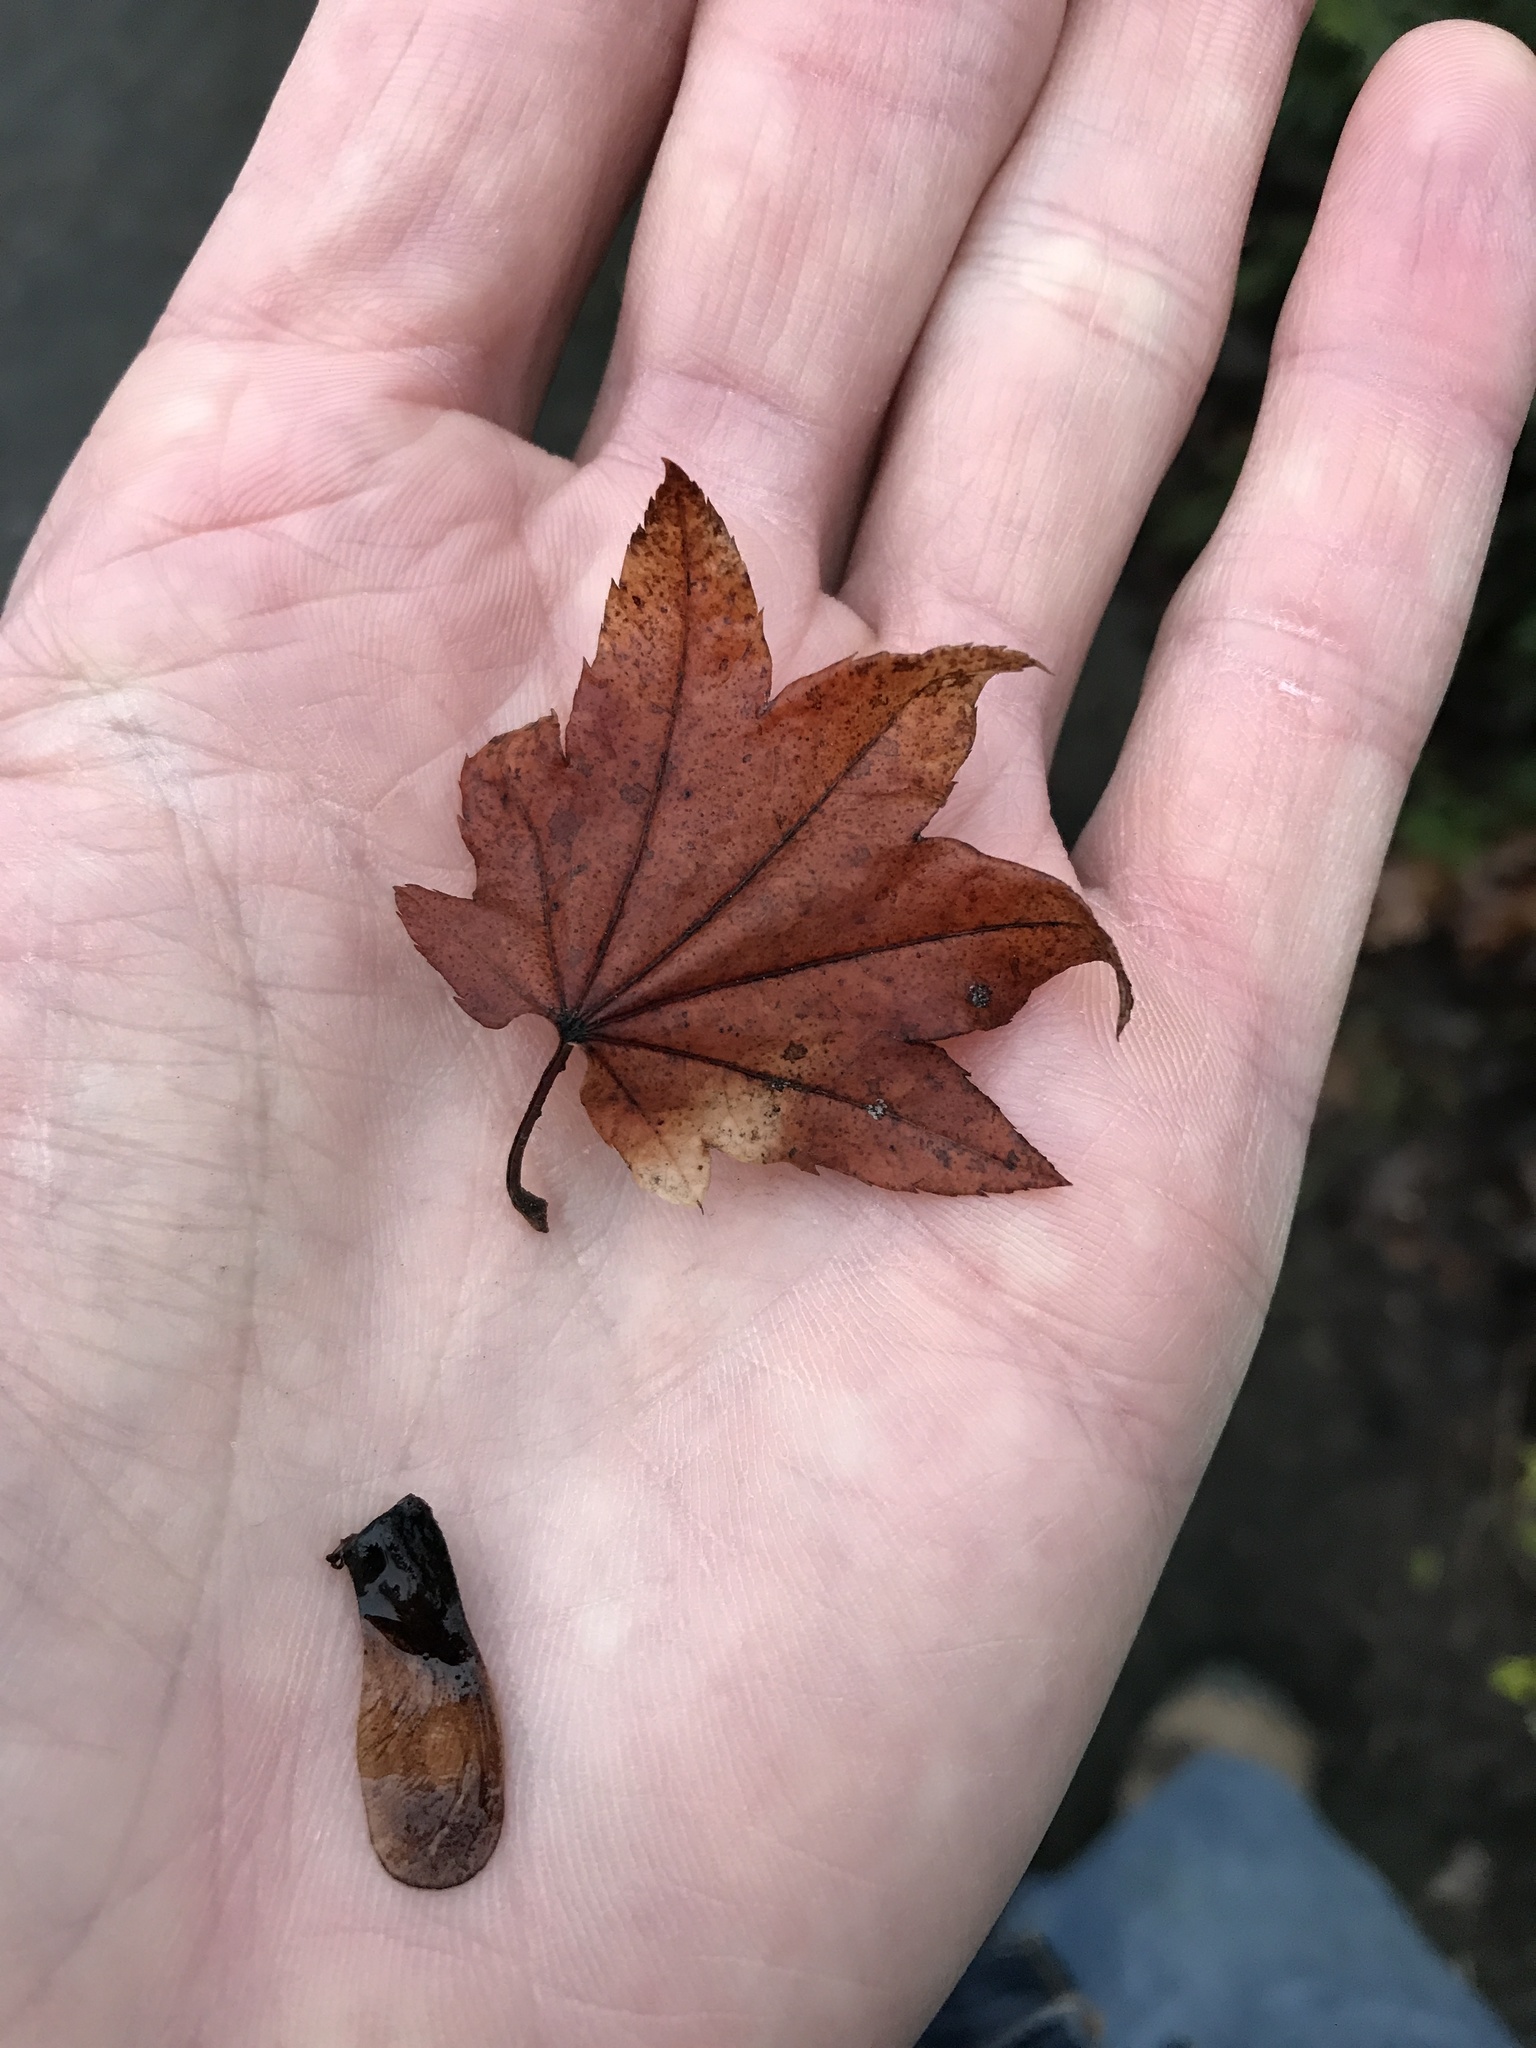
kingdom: Plantae
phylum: Tracheophyta
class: Magnoliopsida
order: Sapindales
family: Sapindaceae
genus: Acer
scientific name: Acer circinatum
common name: Vine maple
